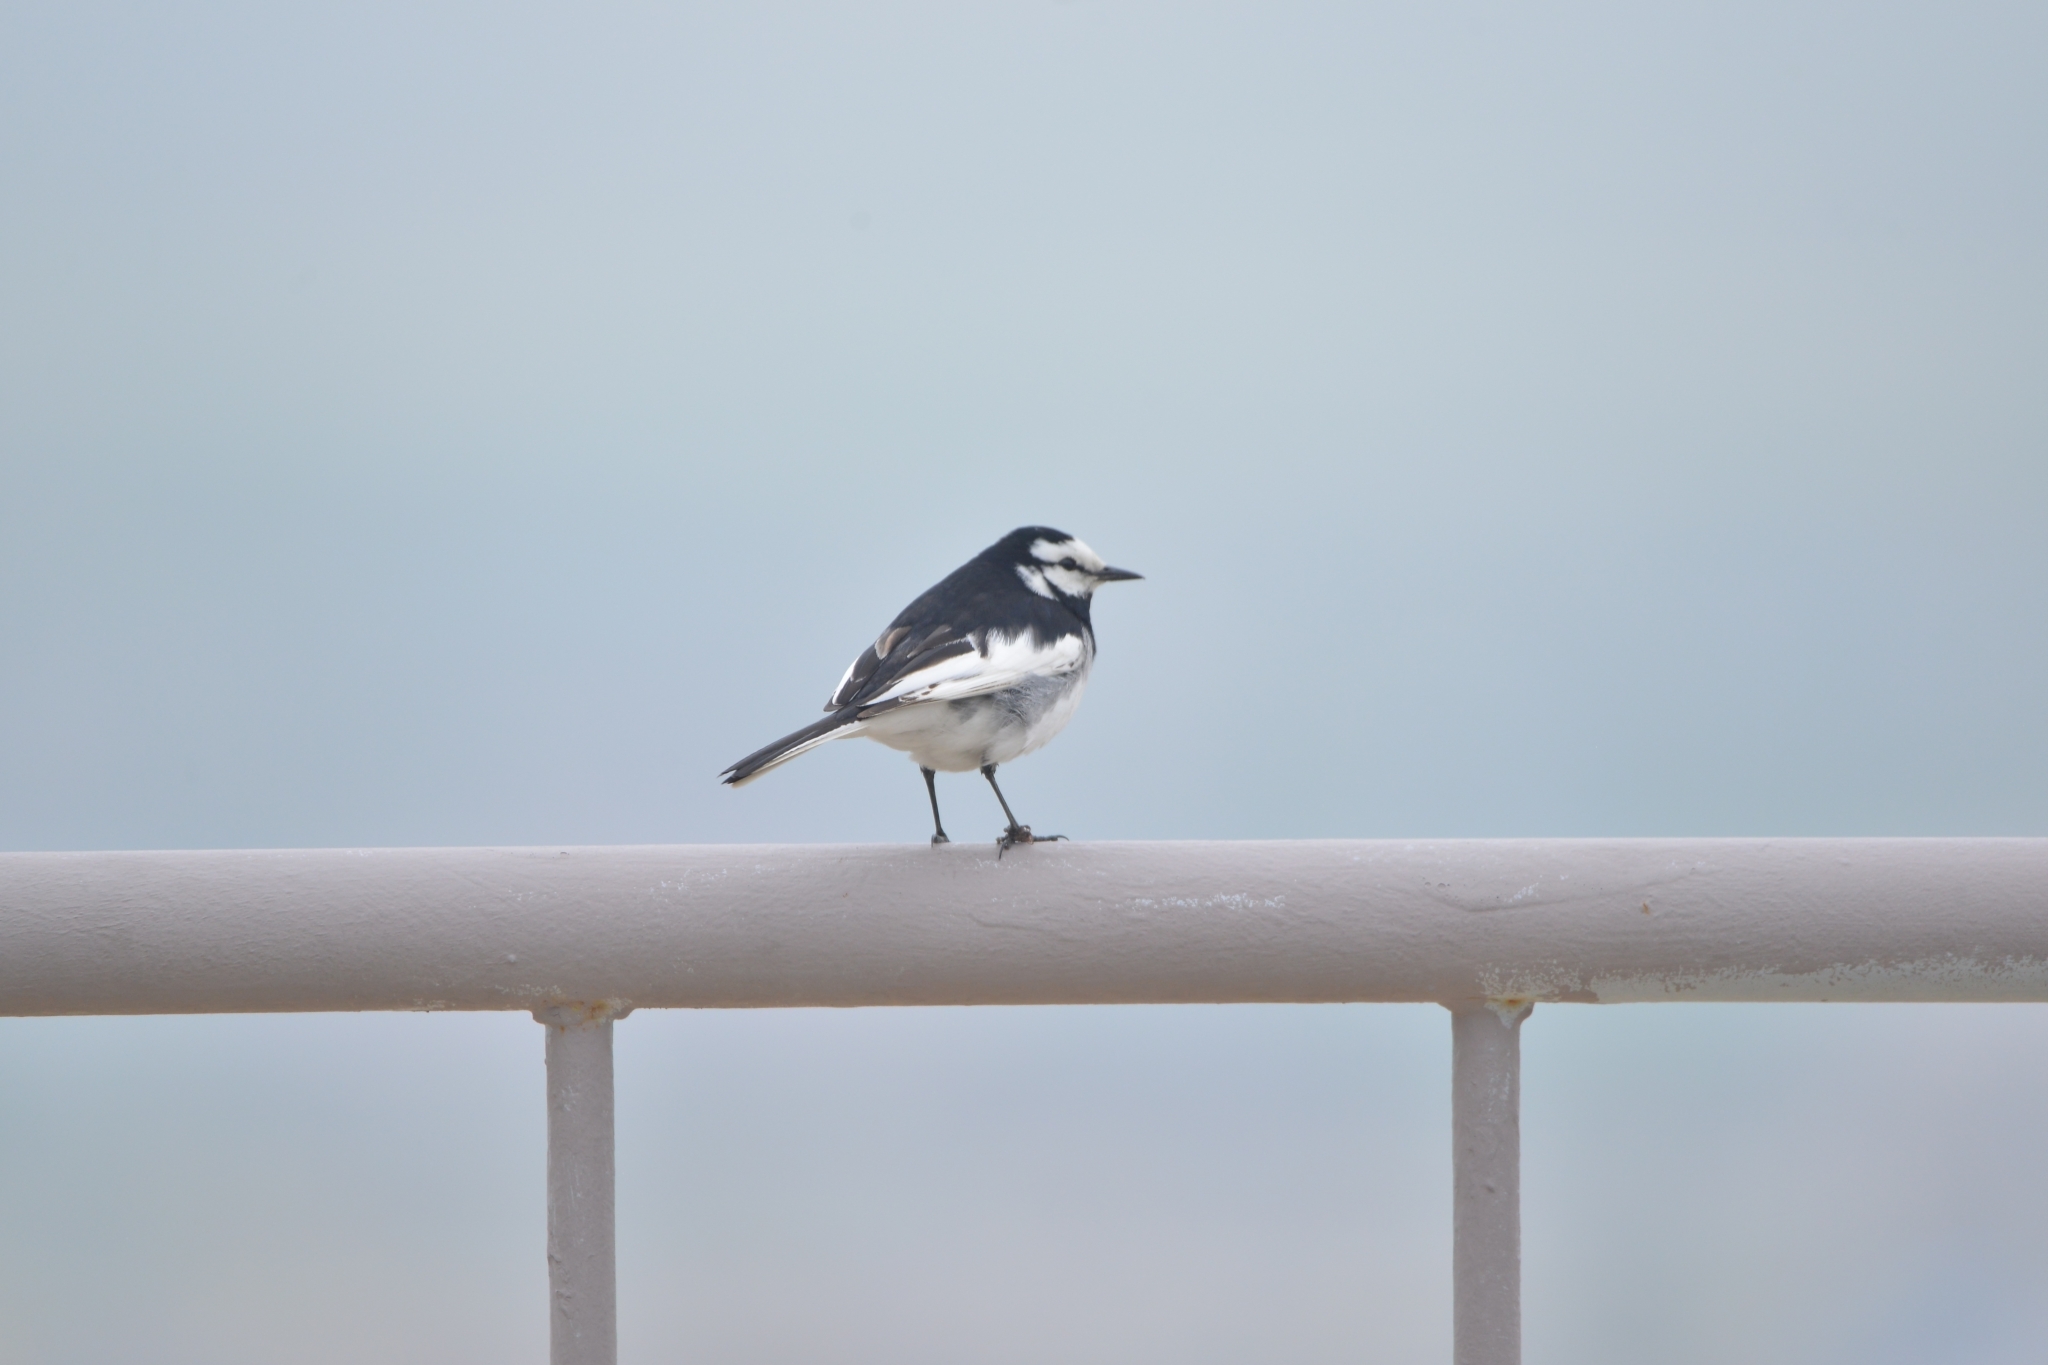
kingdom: Animalia
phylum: Chordata
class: Aves
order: Passeriformes
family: Motacillidae
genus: Motacilla
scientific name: Motacilla alba
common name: White wagtail
